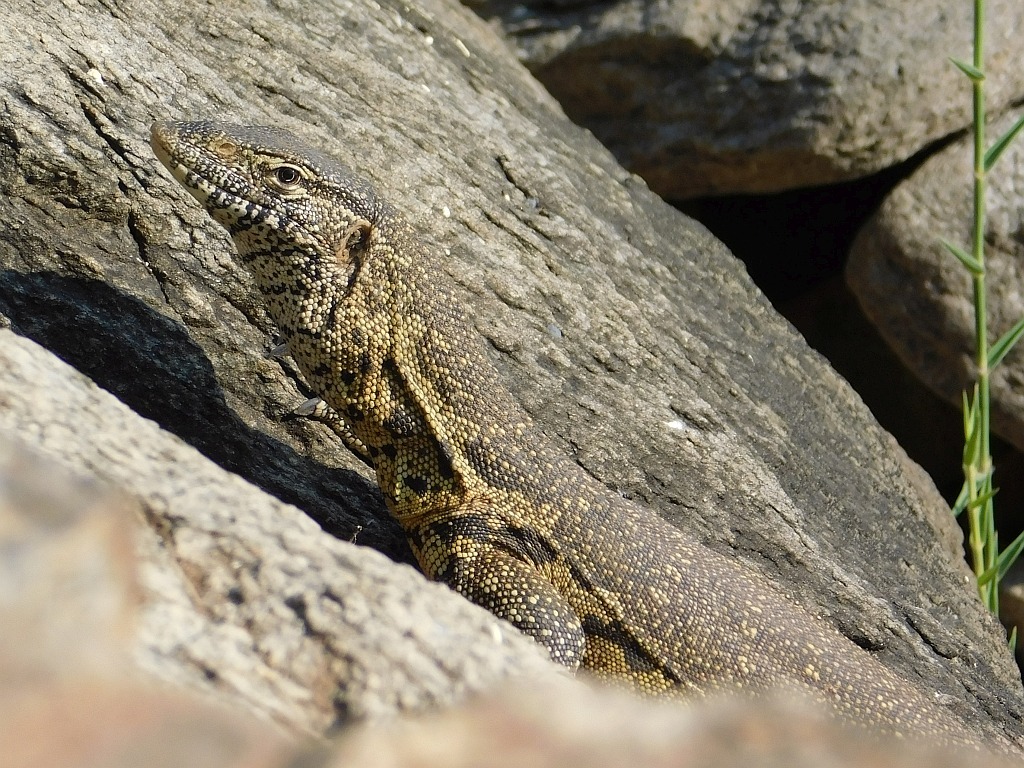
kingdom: Animalia
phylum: Chordata
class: Squamata
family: Varanidae
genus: Varanus
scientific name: Varanus niloticus
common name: Nile monitor
